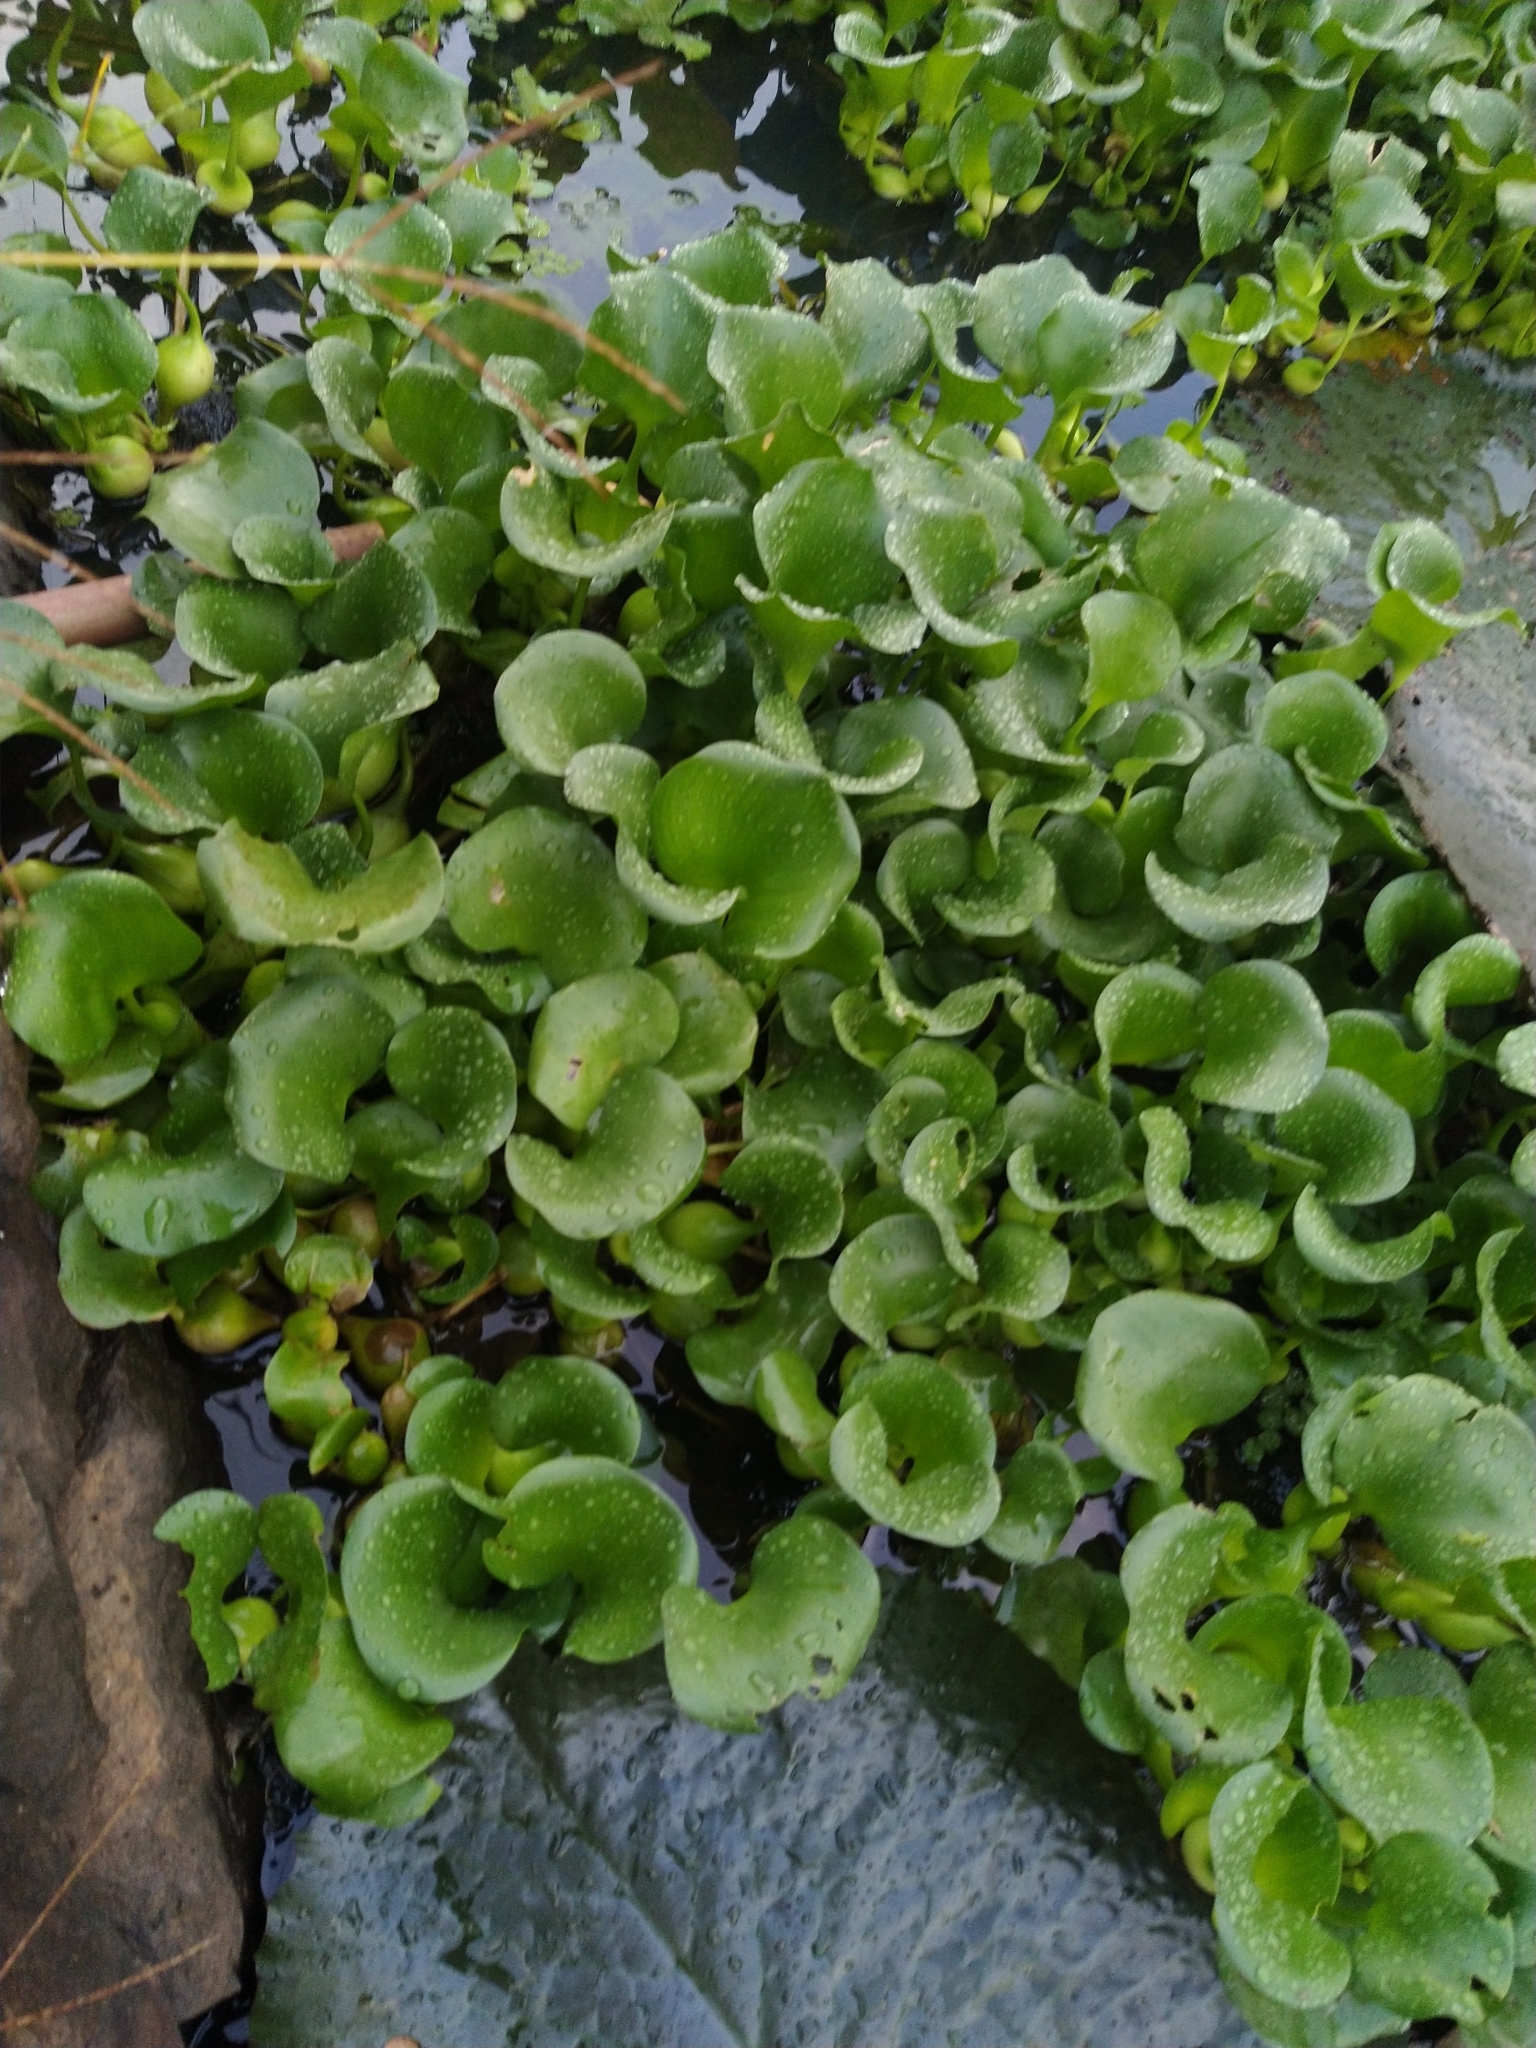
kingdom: Plantae
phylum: Tracheophyta
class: Liliopsida
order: Commelinales
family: Pontederiaceae
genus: Pontederia
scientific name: Pontederia crassipes
